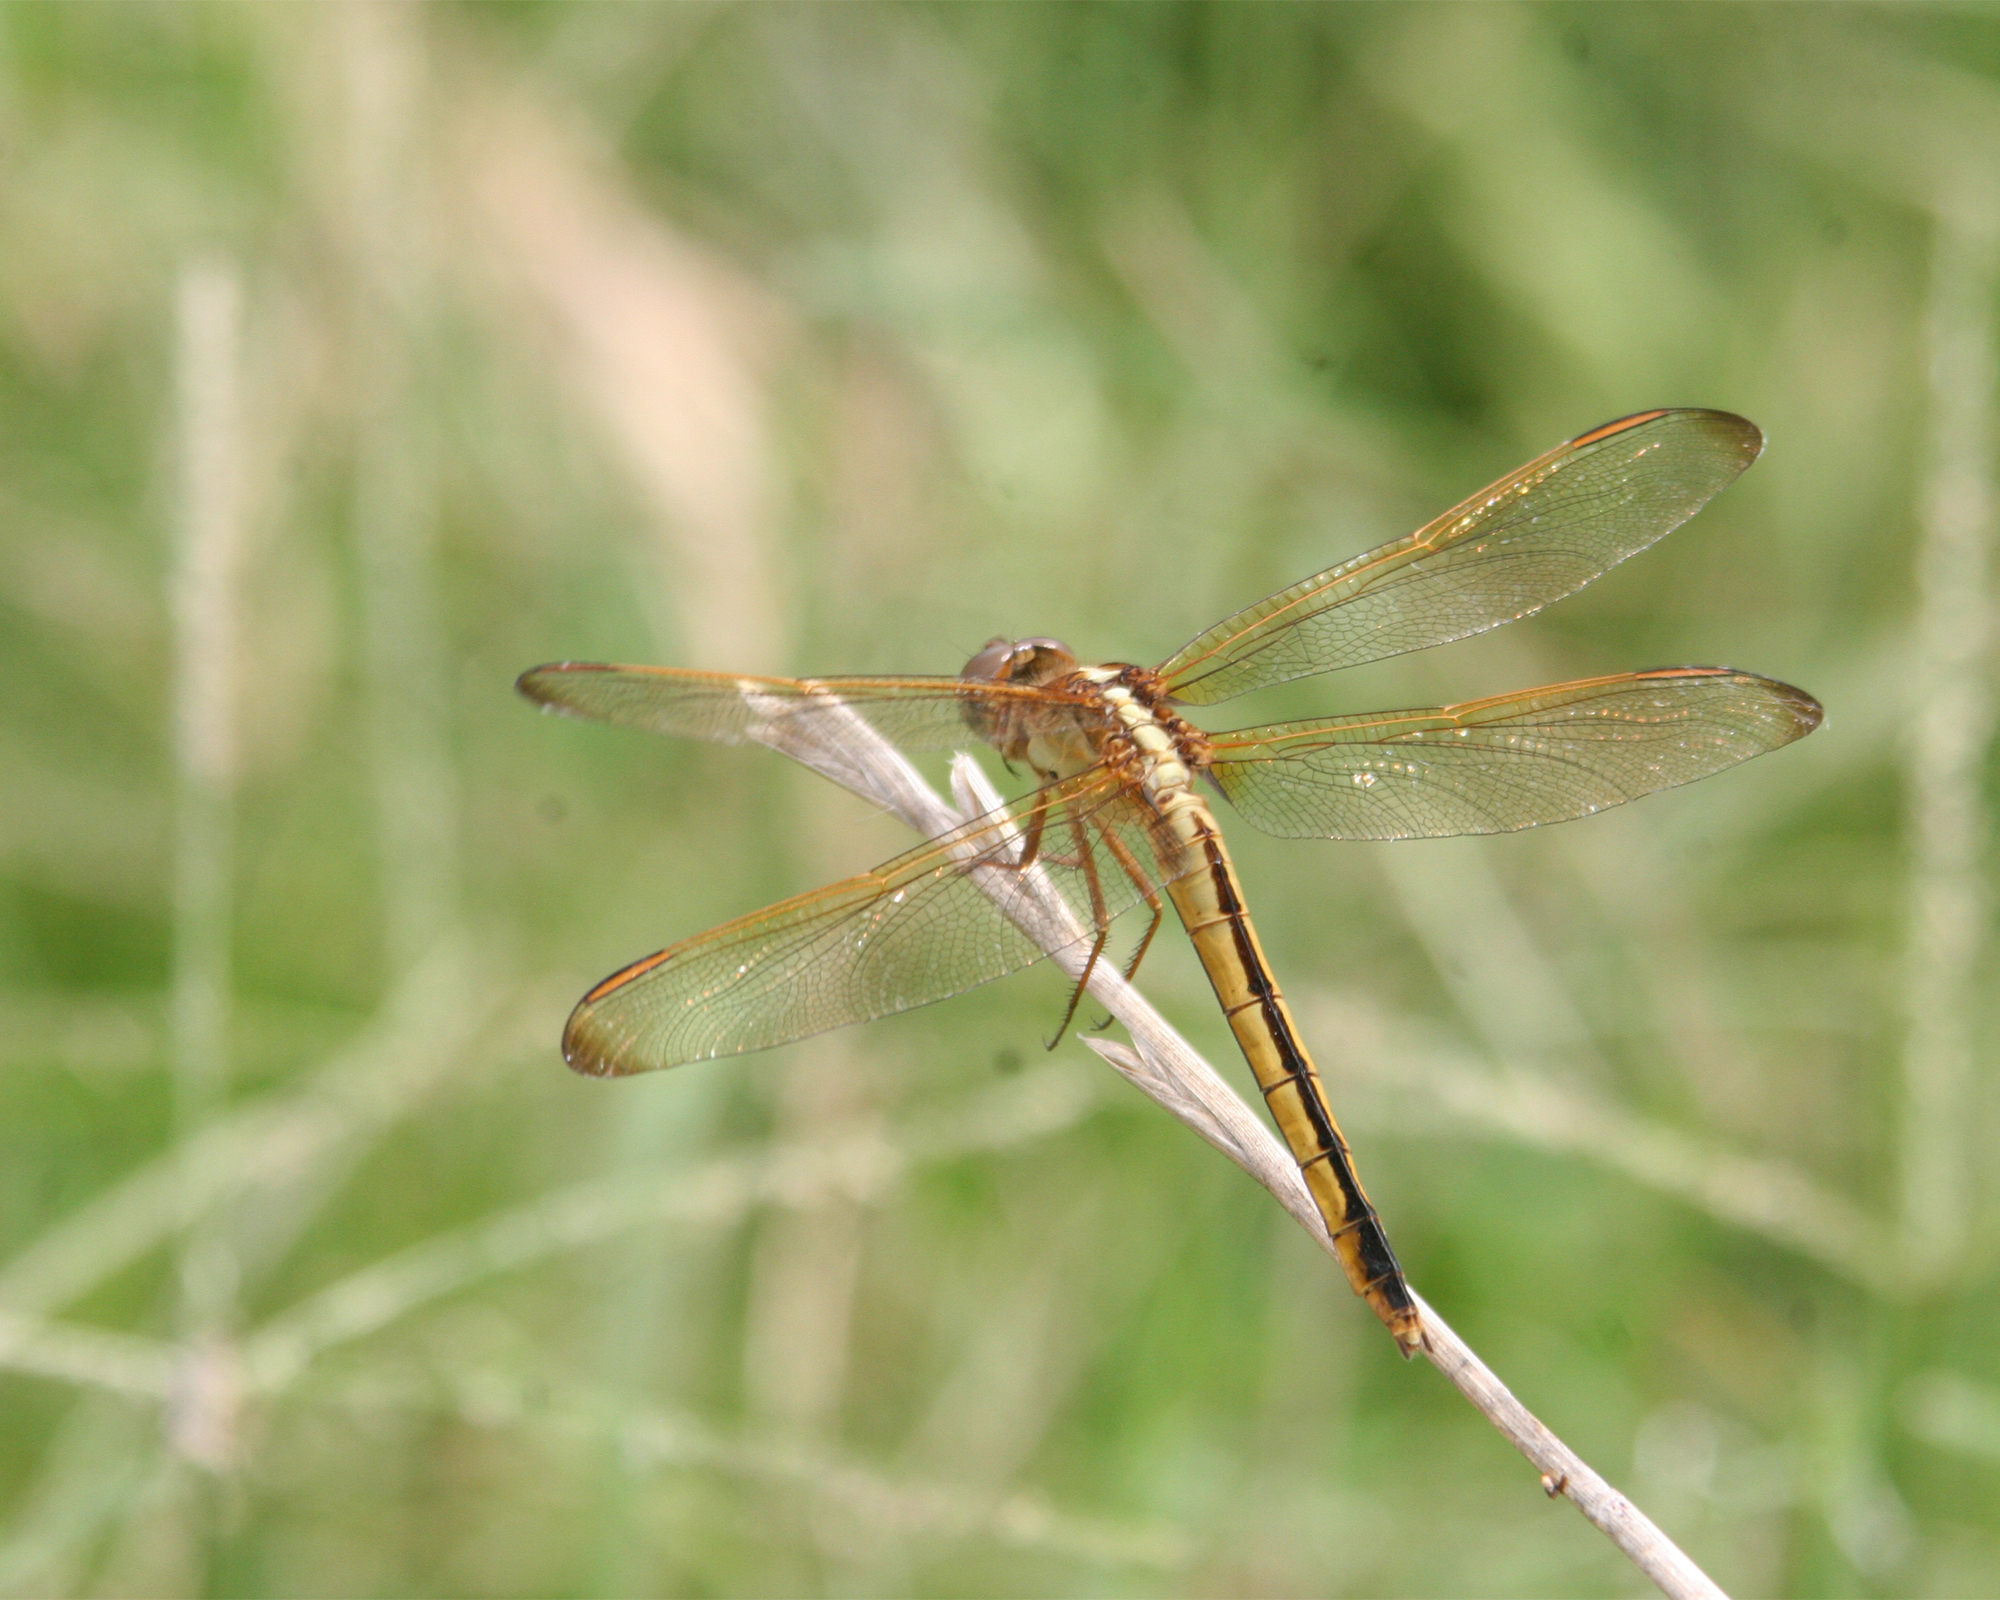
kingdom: Animalia
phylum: Arthropoda
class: Insecta
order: Odonata
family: Libellulidae
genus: Libellula
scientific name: Libellula needhami
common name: Needham's skimmer
